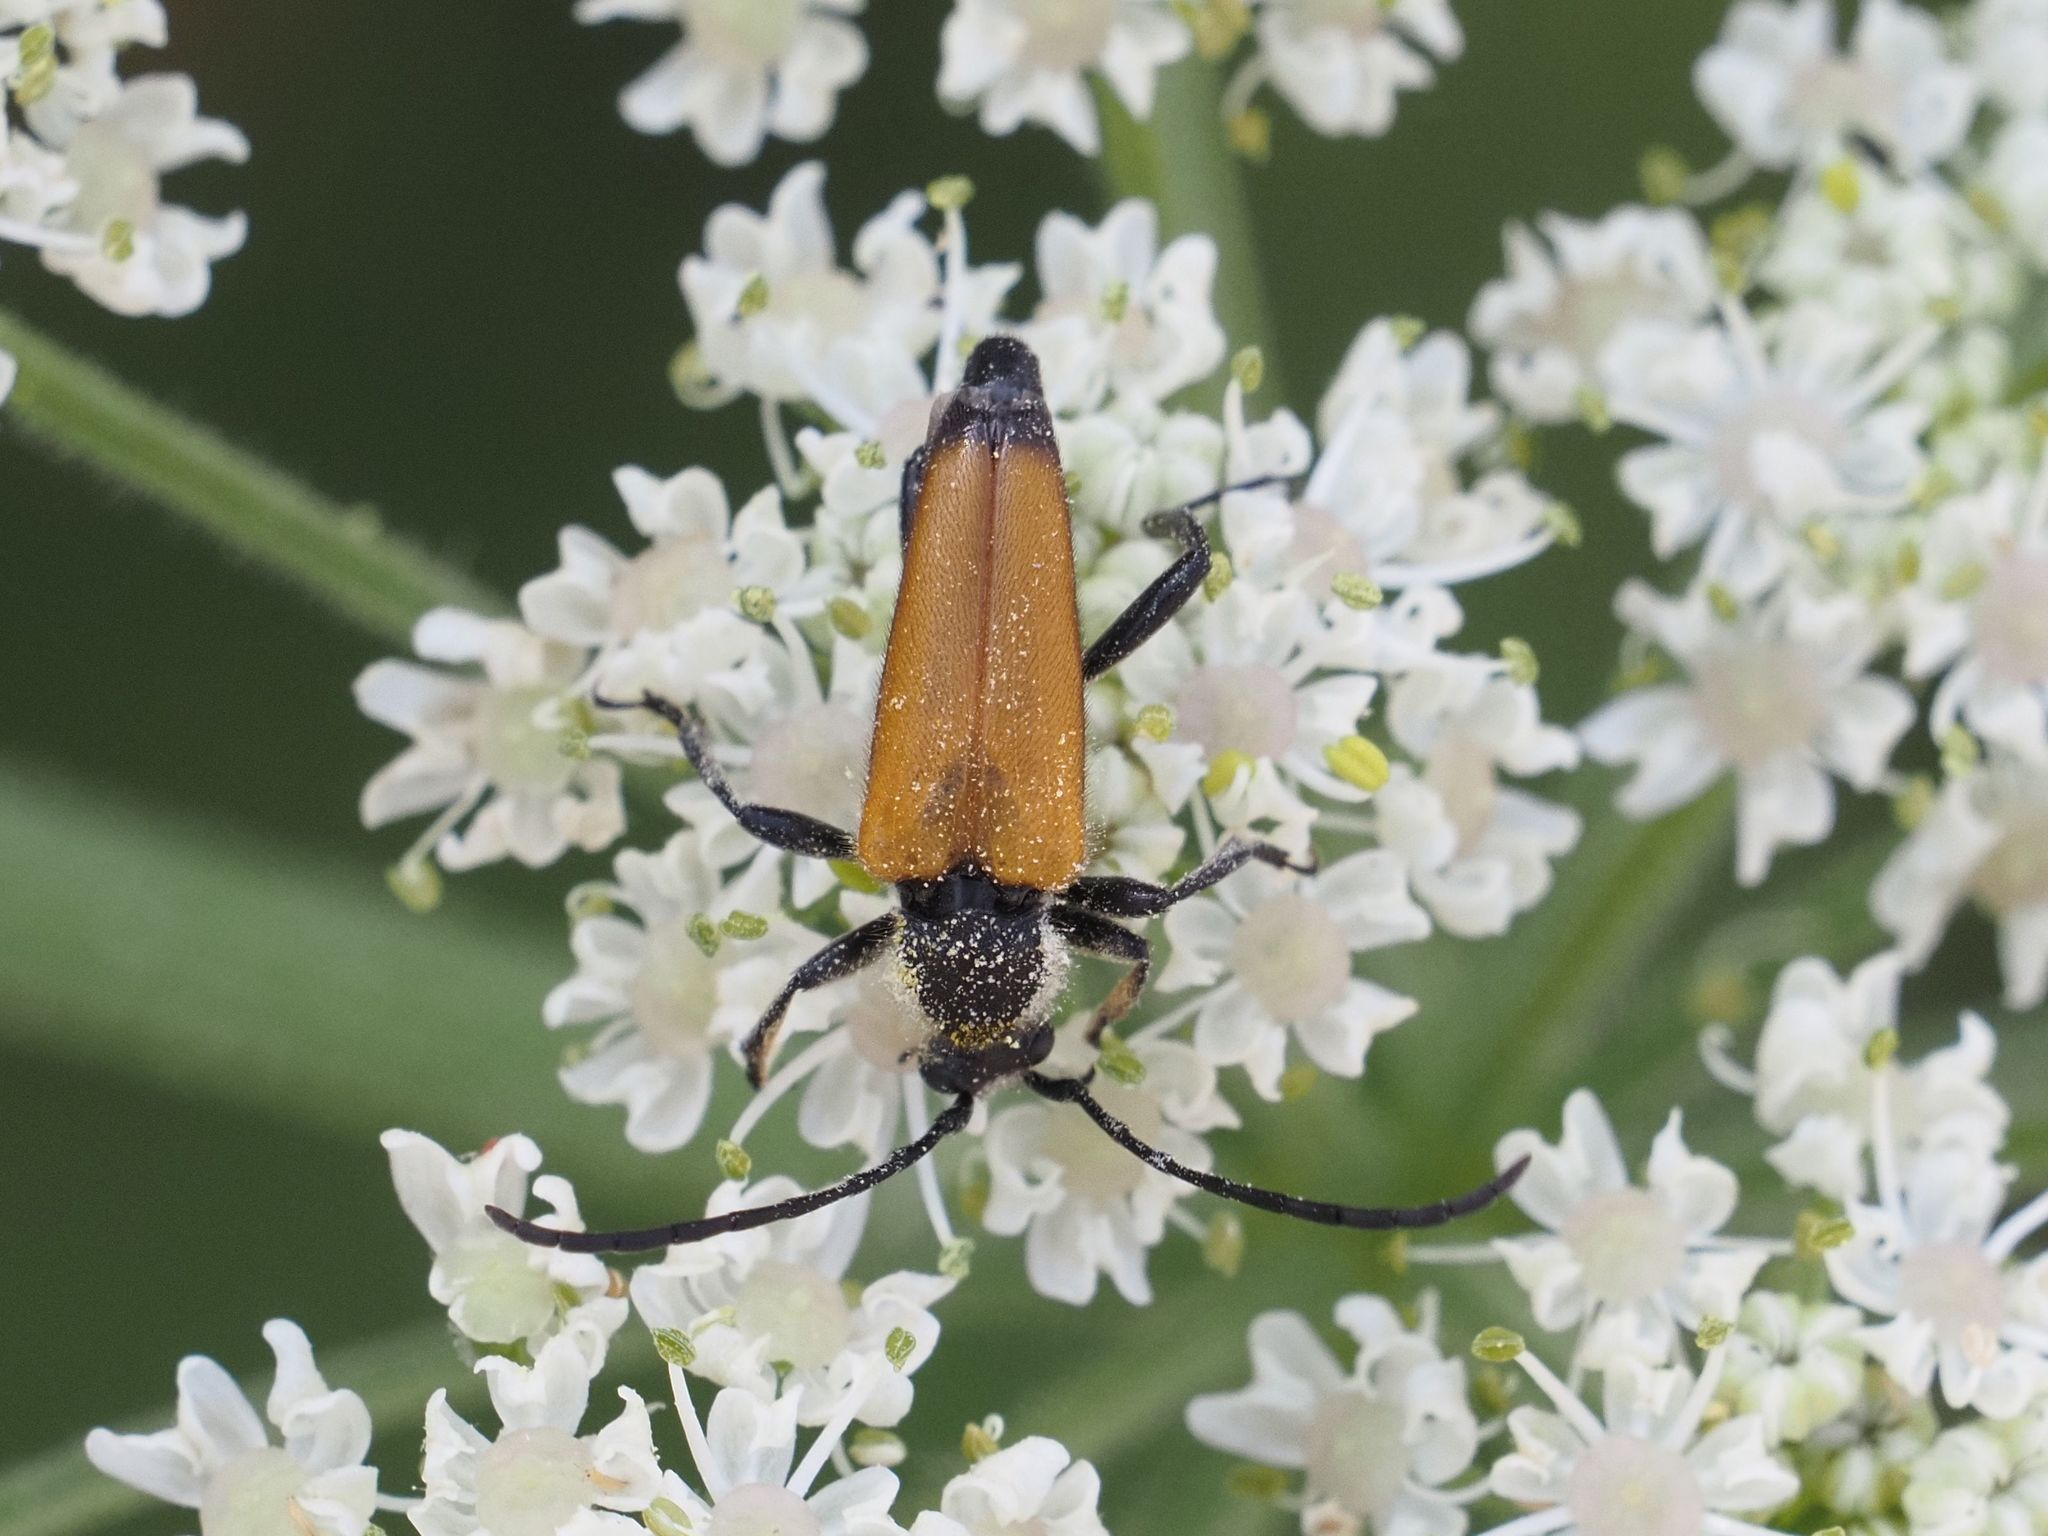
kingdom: Animalia
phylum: Arthropoda
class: Insecta
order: Coleoptera
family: Cerambycidae
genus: Paracorymbia
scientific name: Paracorymbia fulva
